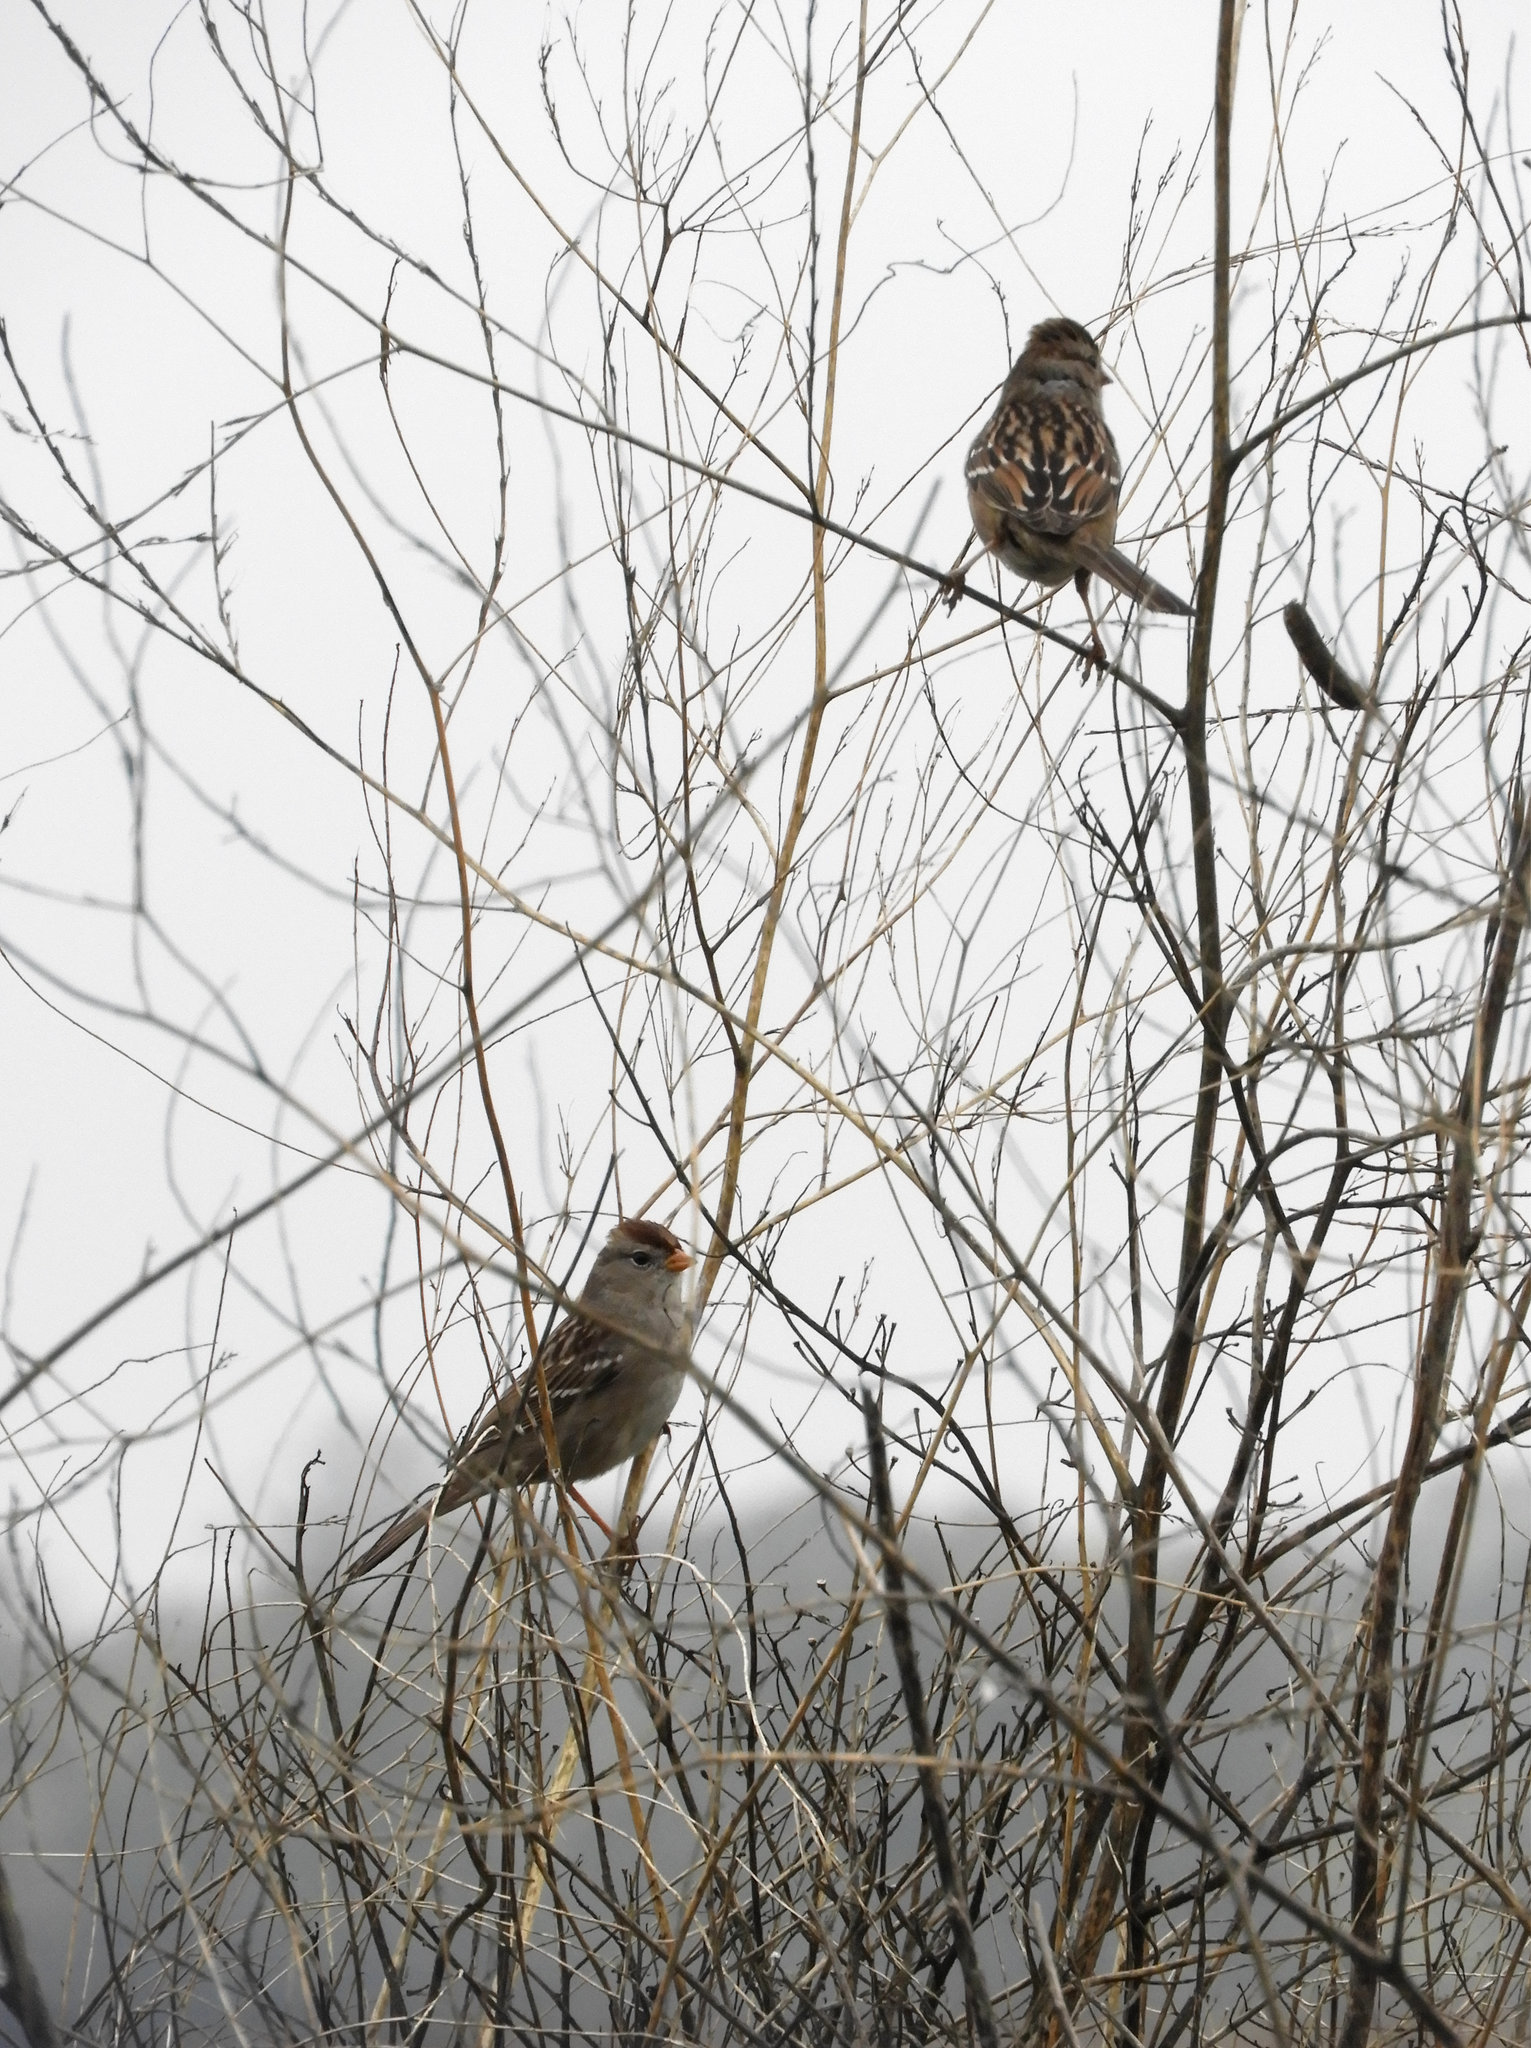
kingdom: Animalia
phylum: Chordata
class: Aves
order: Passeriformes
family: Passerellidae
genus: Zonotrichia
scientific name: Zonotrichia leucophrys
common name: White-crowned sparrow
